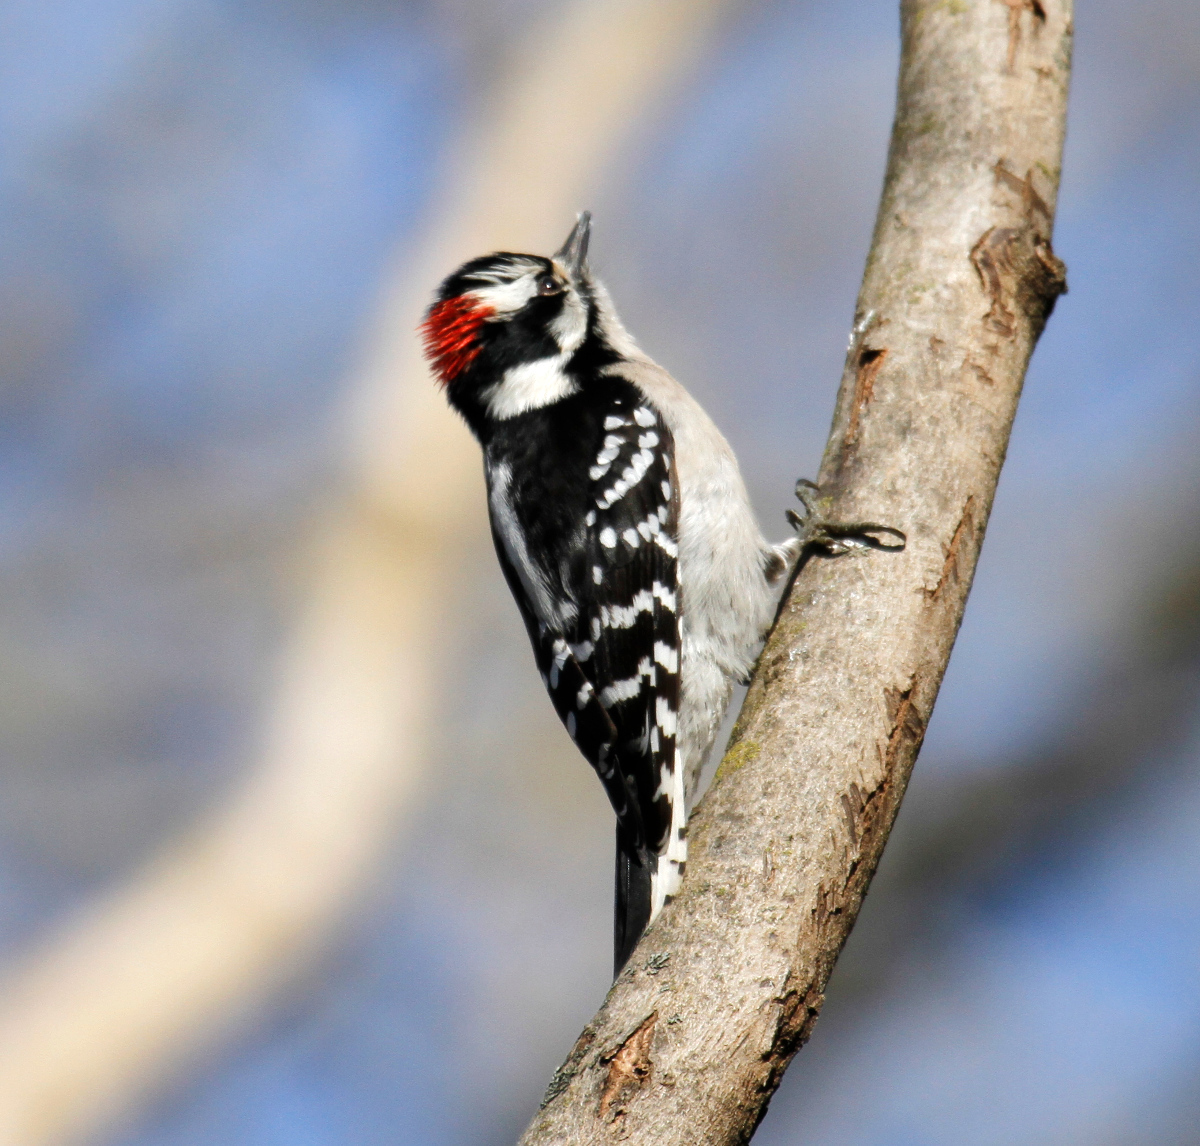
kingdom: Animalia
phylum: Chordata
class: Aves
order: Piciformes
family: Picidae
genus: Dryobates
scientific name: Dryobates pubescens
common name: Downy woodpecker
